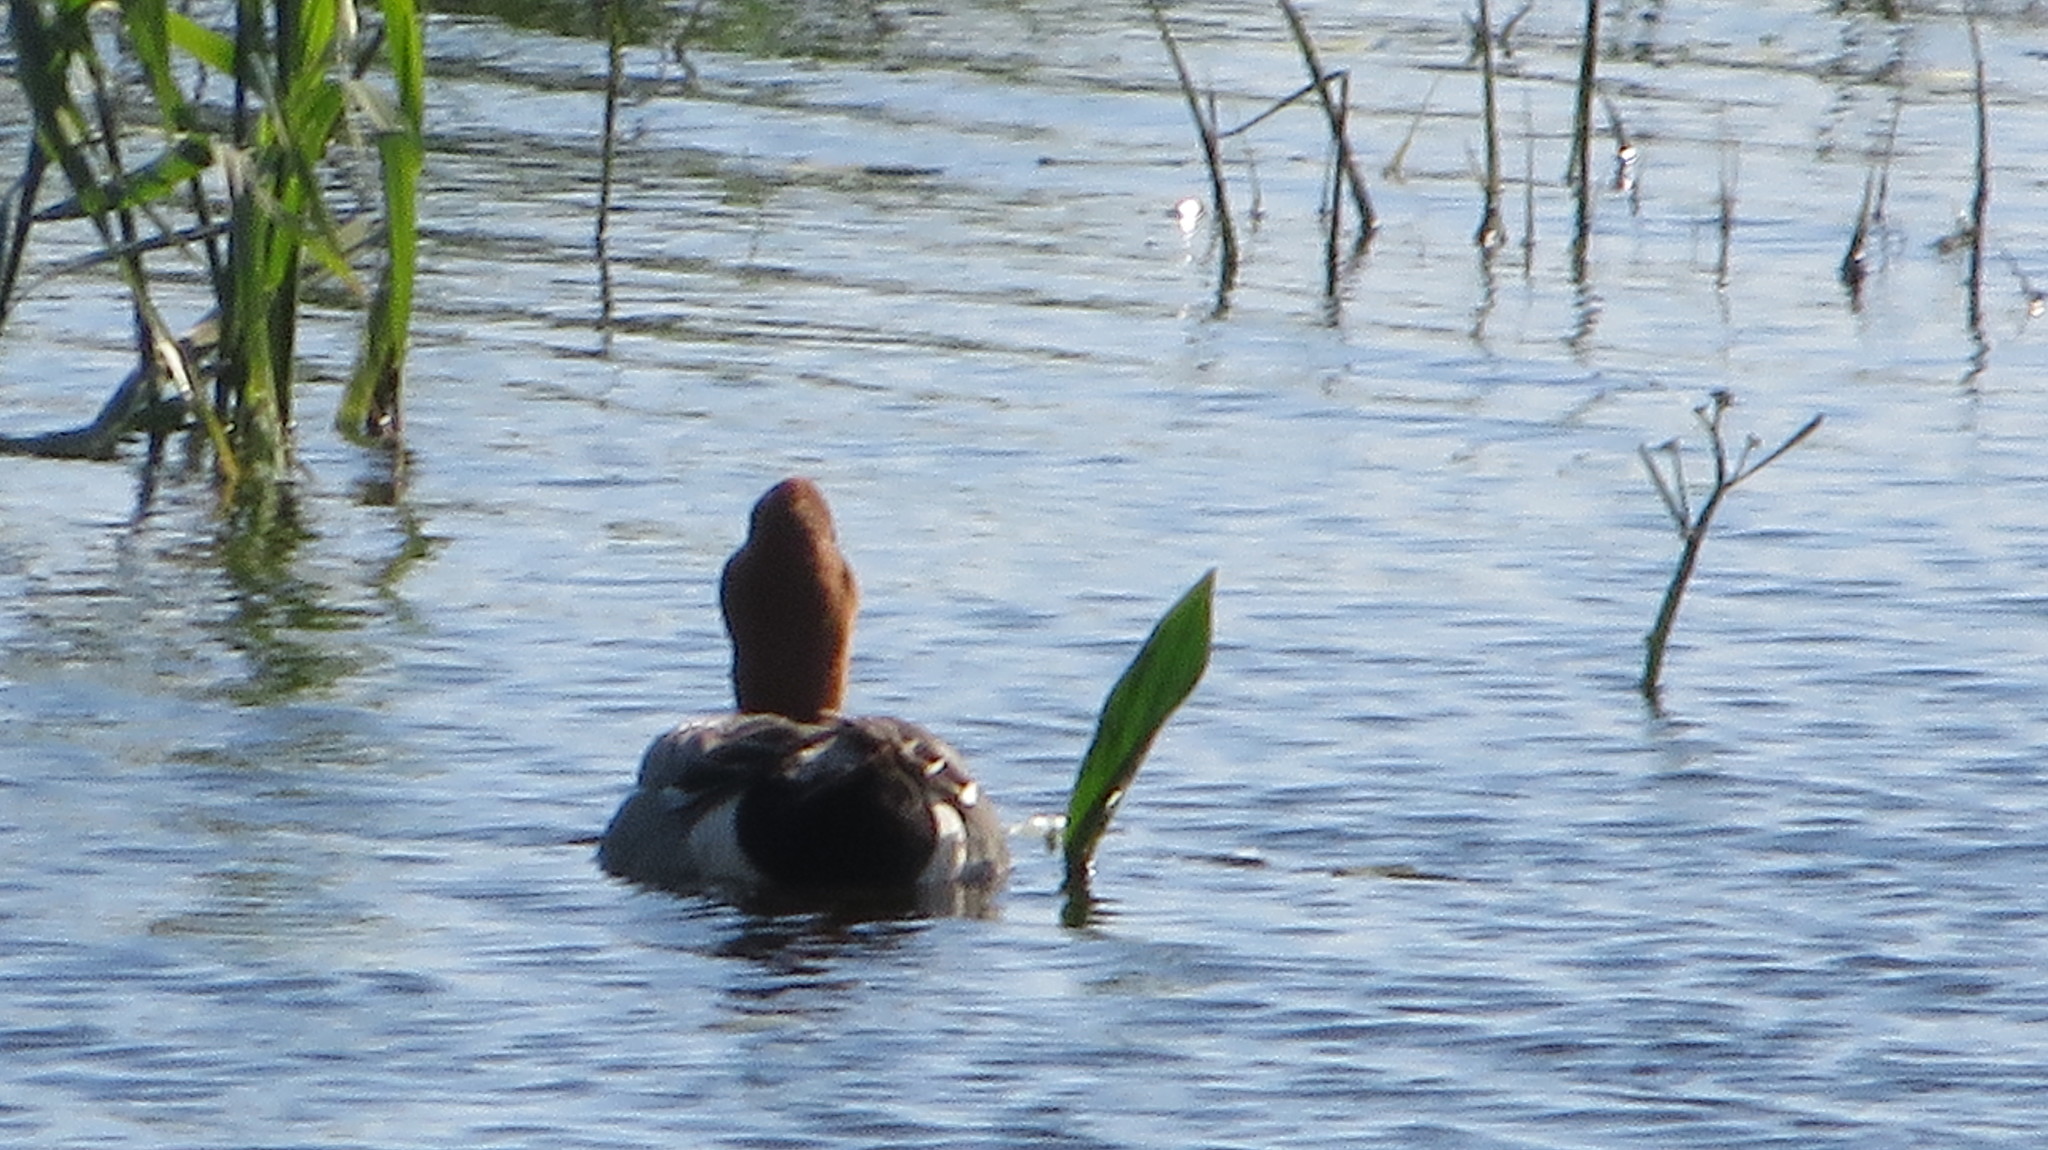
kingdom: Animalia
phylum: Chordata
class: Aves
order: Anseriformes
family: Anatidae
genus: Mareca
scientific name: Mareca penelope
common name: Eurasian wigeon
